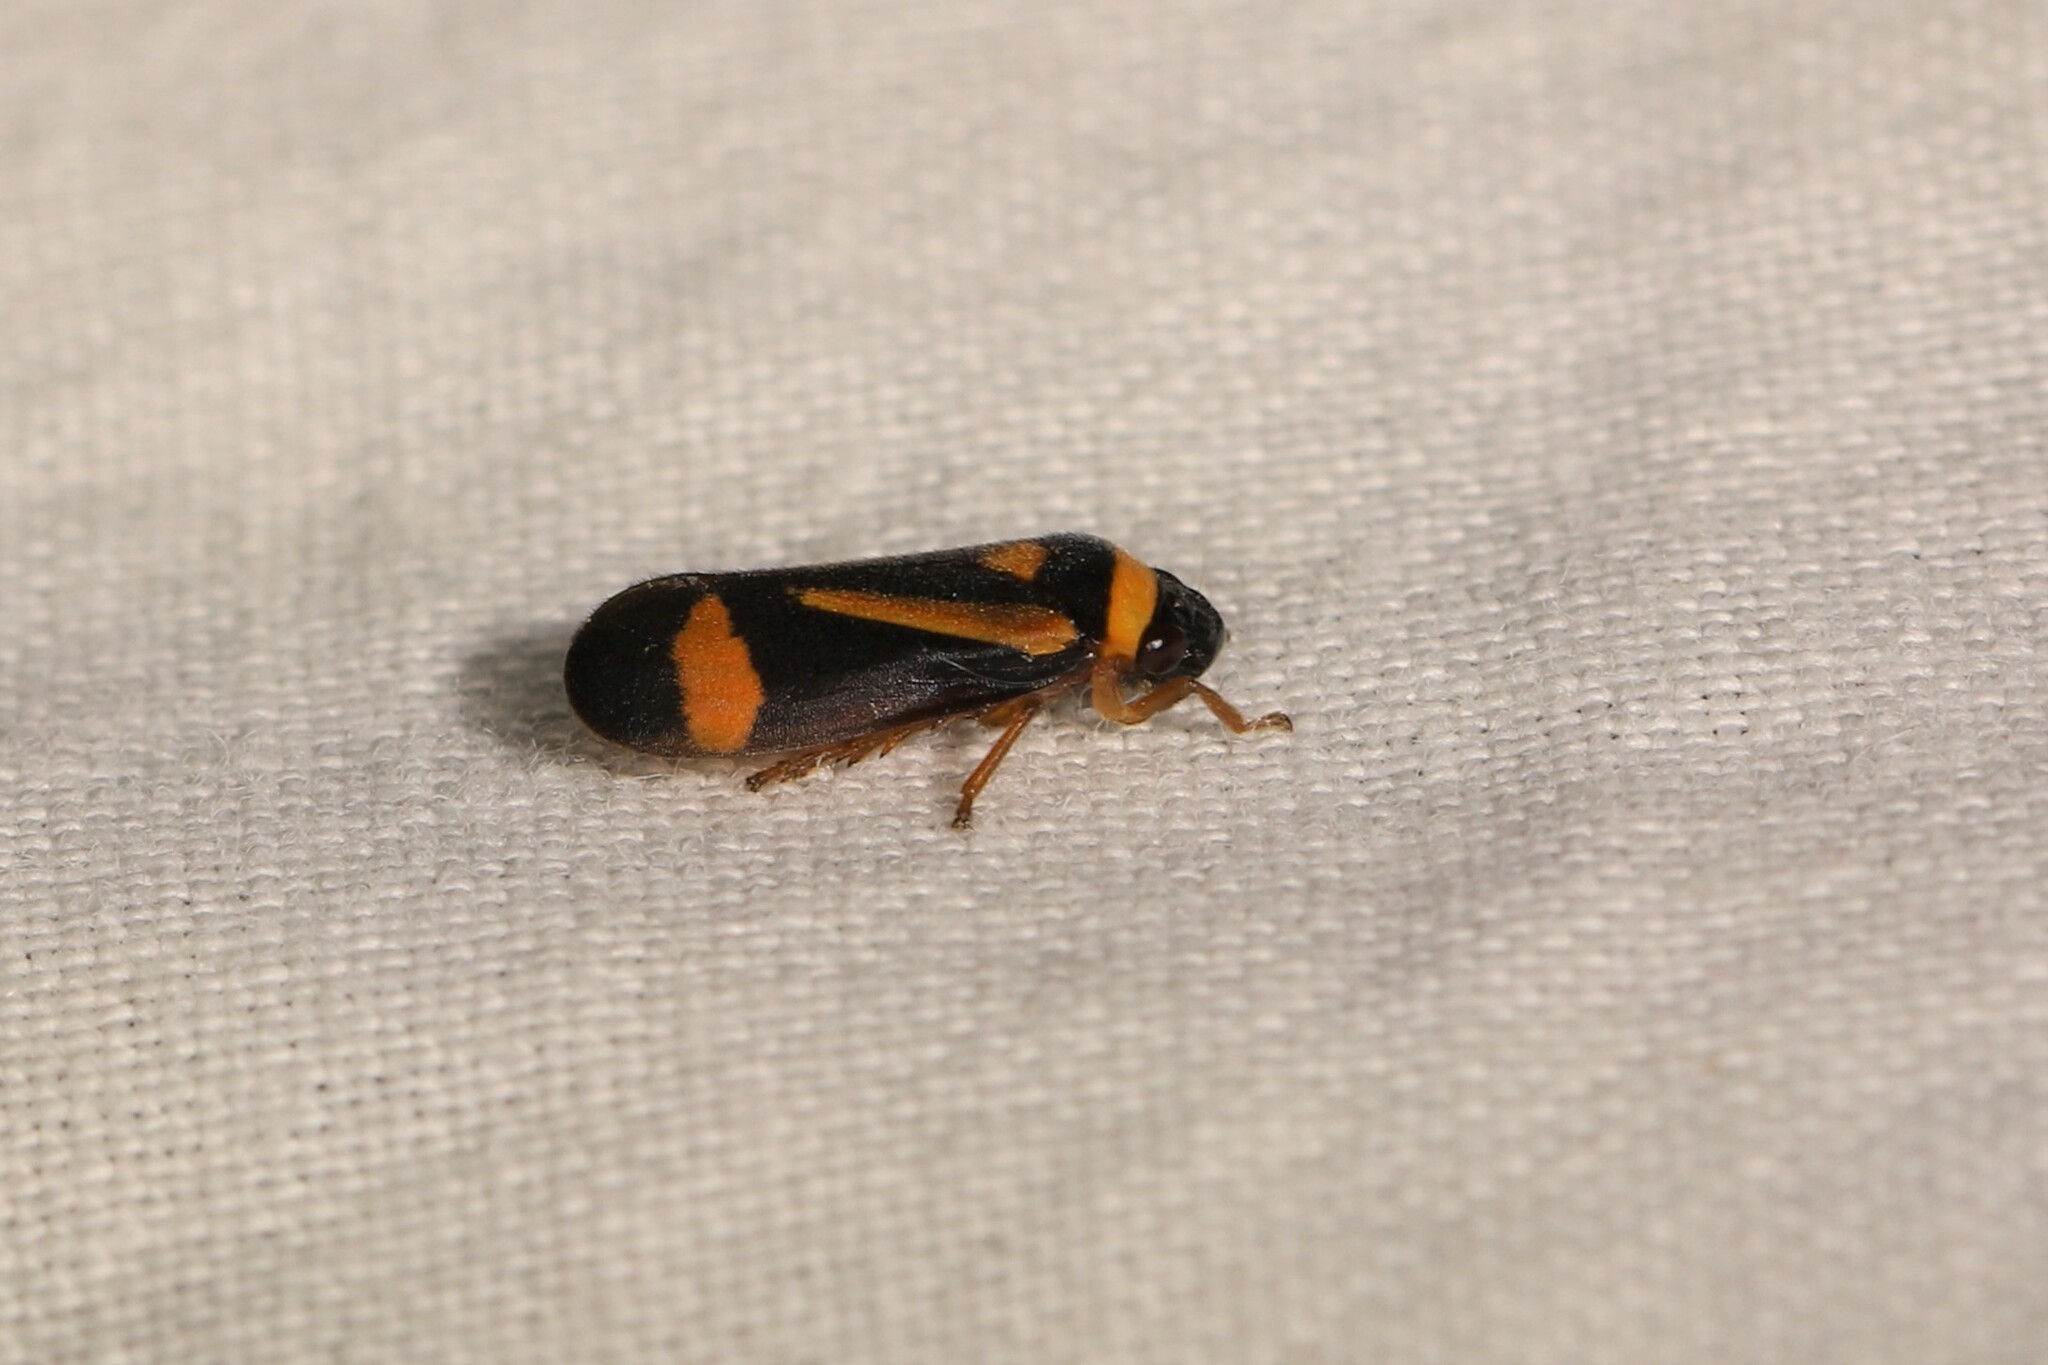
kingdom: Animalia
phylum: Arthropoda
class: Insecta
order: Hemiptera
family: Cercopidae
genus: Zuata
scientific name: Zuata nolckeni
